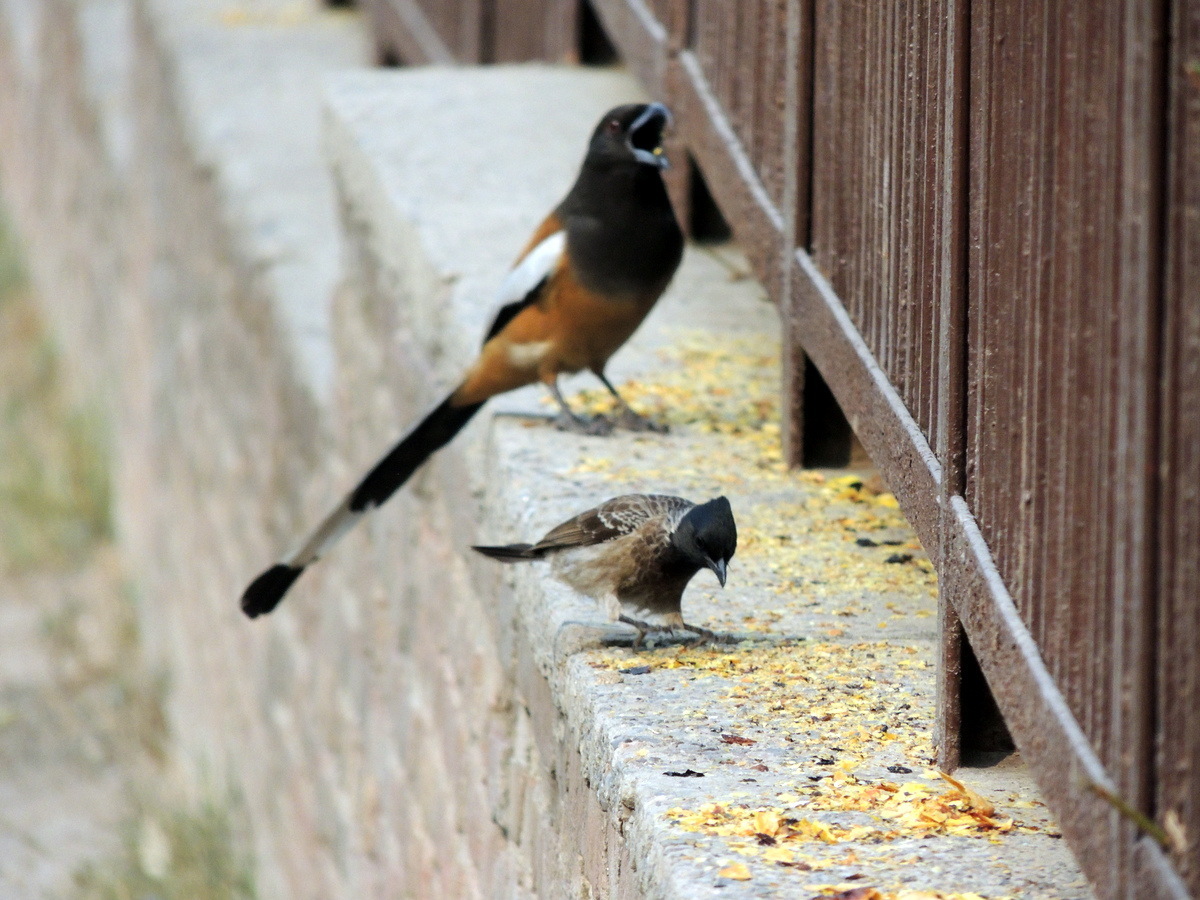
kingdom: Animalia
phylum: Chordata
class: Aves
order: Passeriformes
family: Pycnonotidae
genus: Pycnonotus
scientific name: Pycnonotus cafer
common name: Red-vented bulbul
